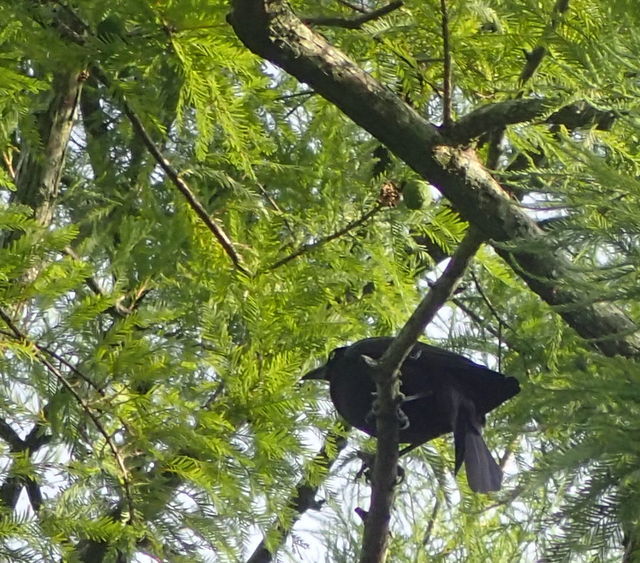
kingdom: Animalia
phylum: Chordata
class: Aves
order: Passeriformes
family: Icteridae
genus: Agelaius
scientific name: Agelaius phoeniceus
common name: Red-winged blackbird
